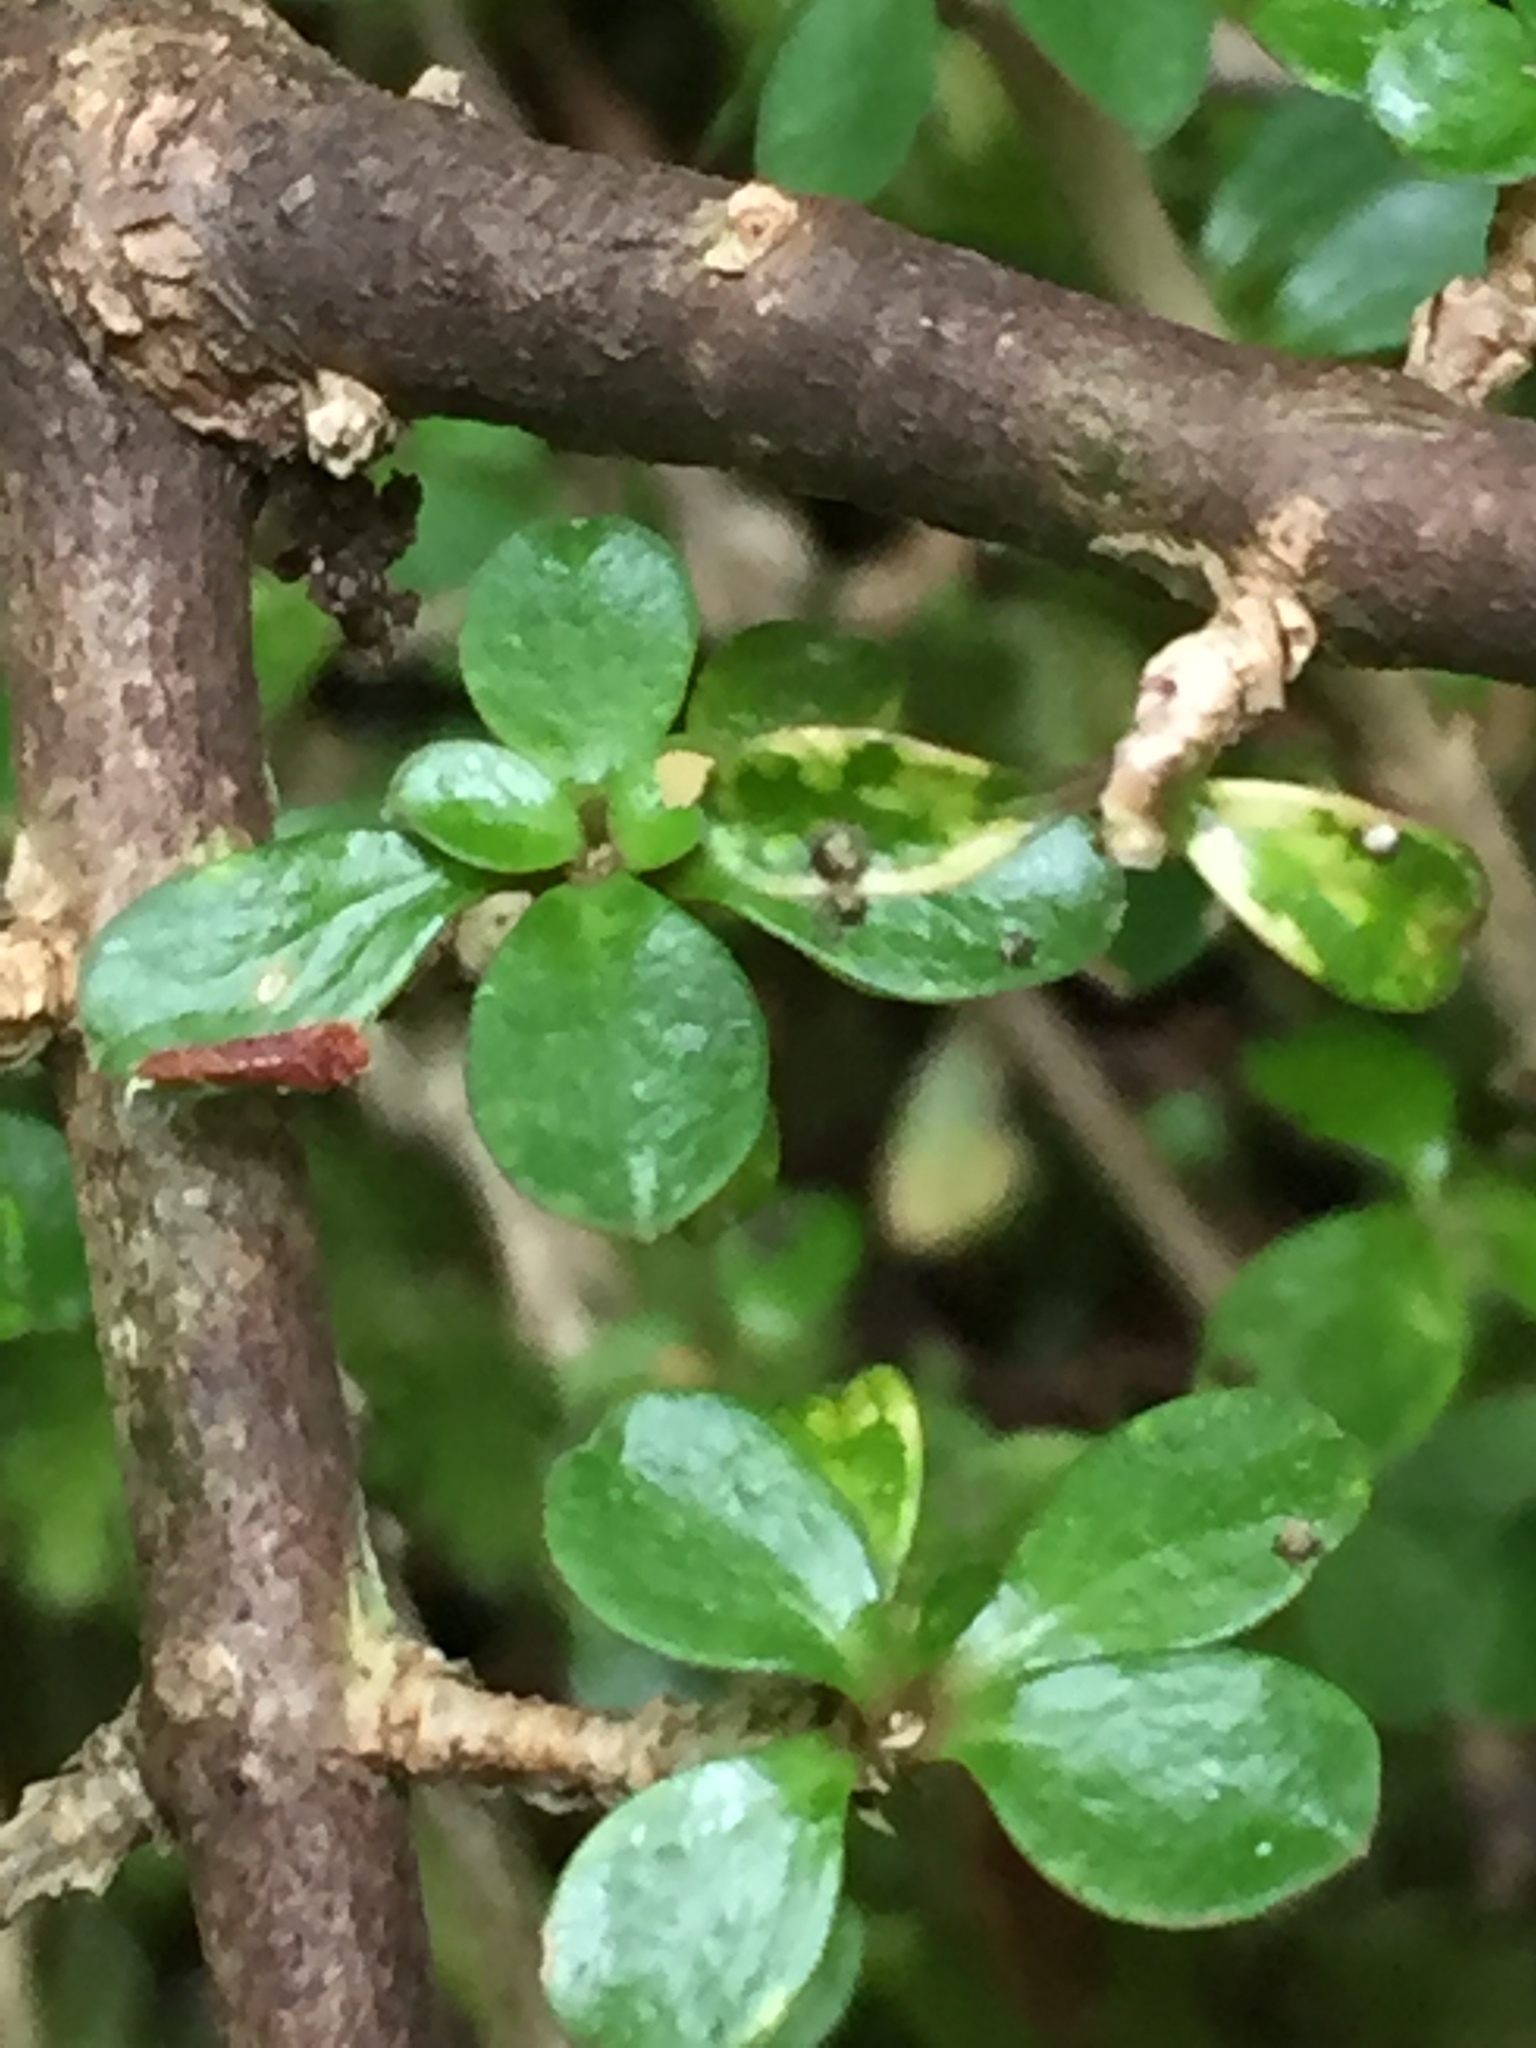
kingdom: Plantae
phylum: Tracheophyta
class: Magnoliopsida
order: Gentianales
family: Rubiaceae
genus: Coprosma
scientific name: Coprosma depressa
